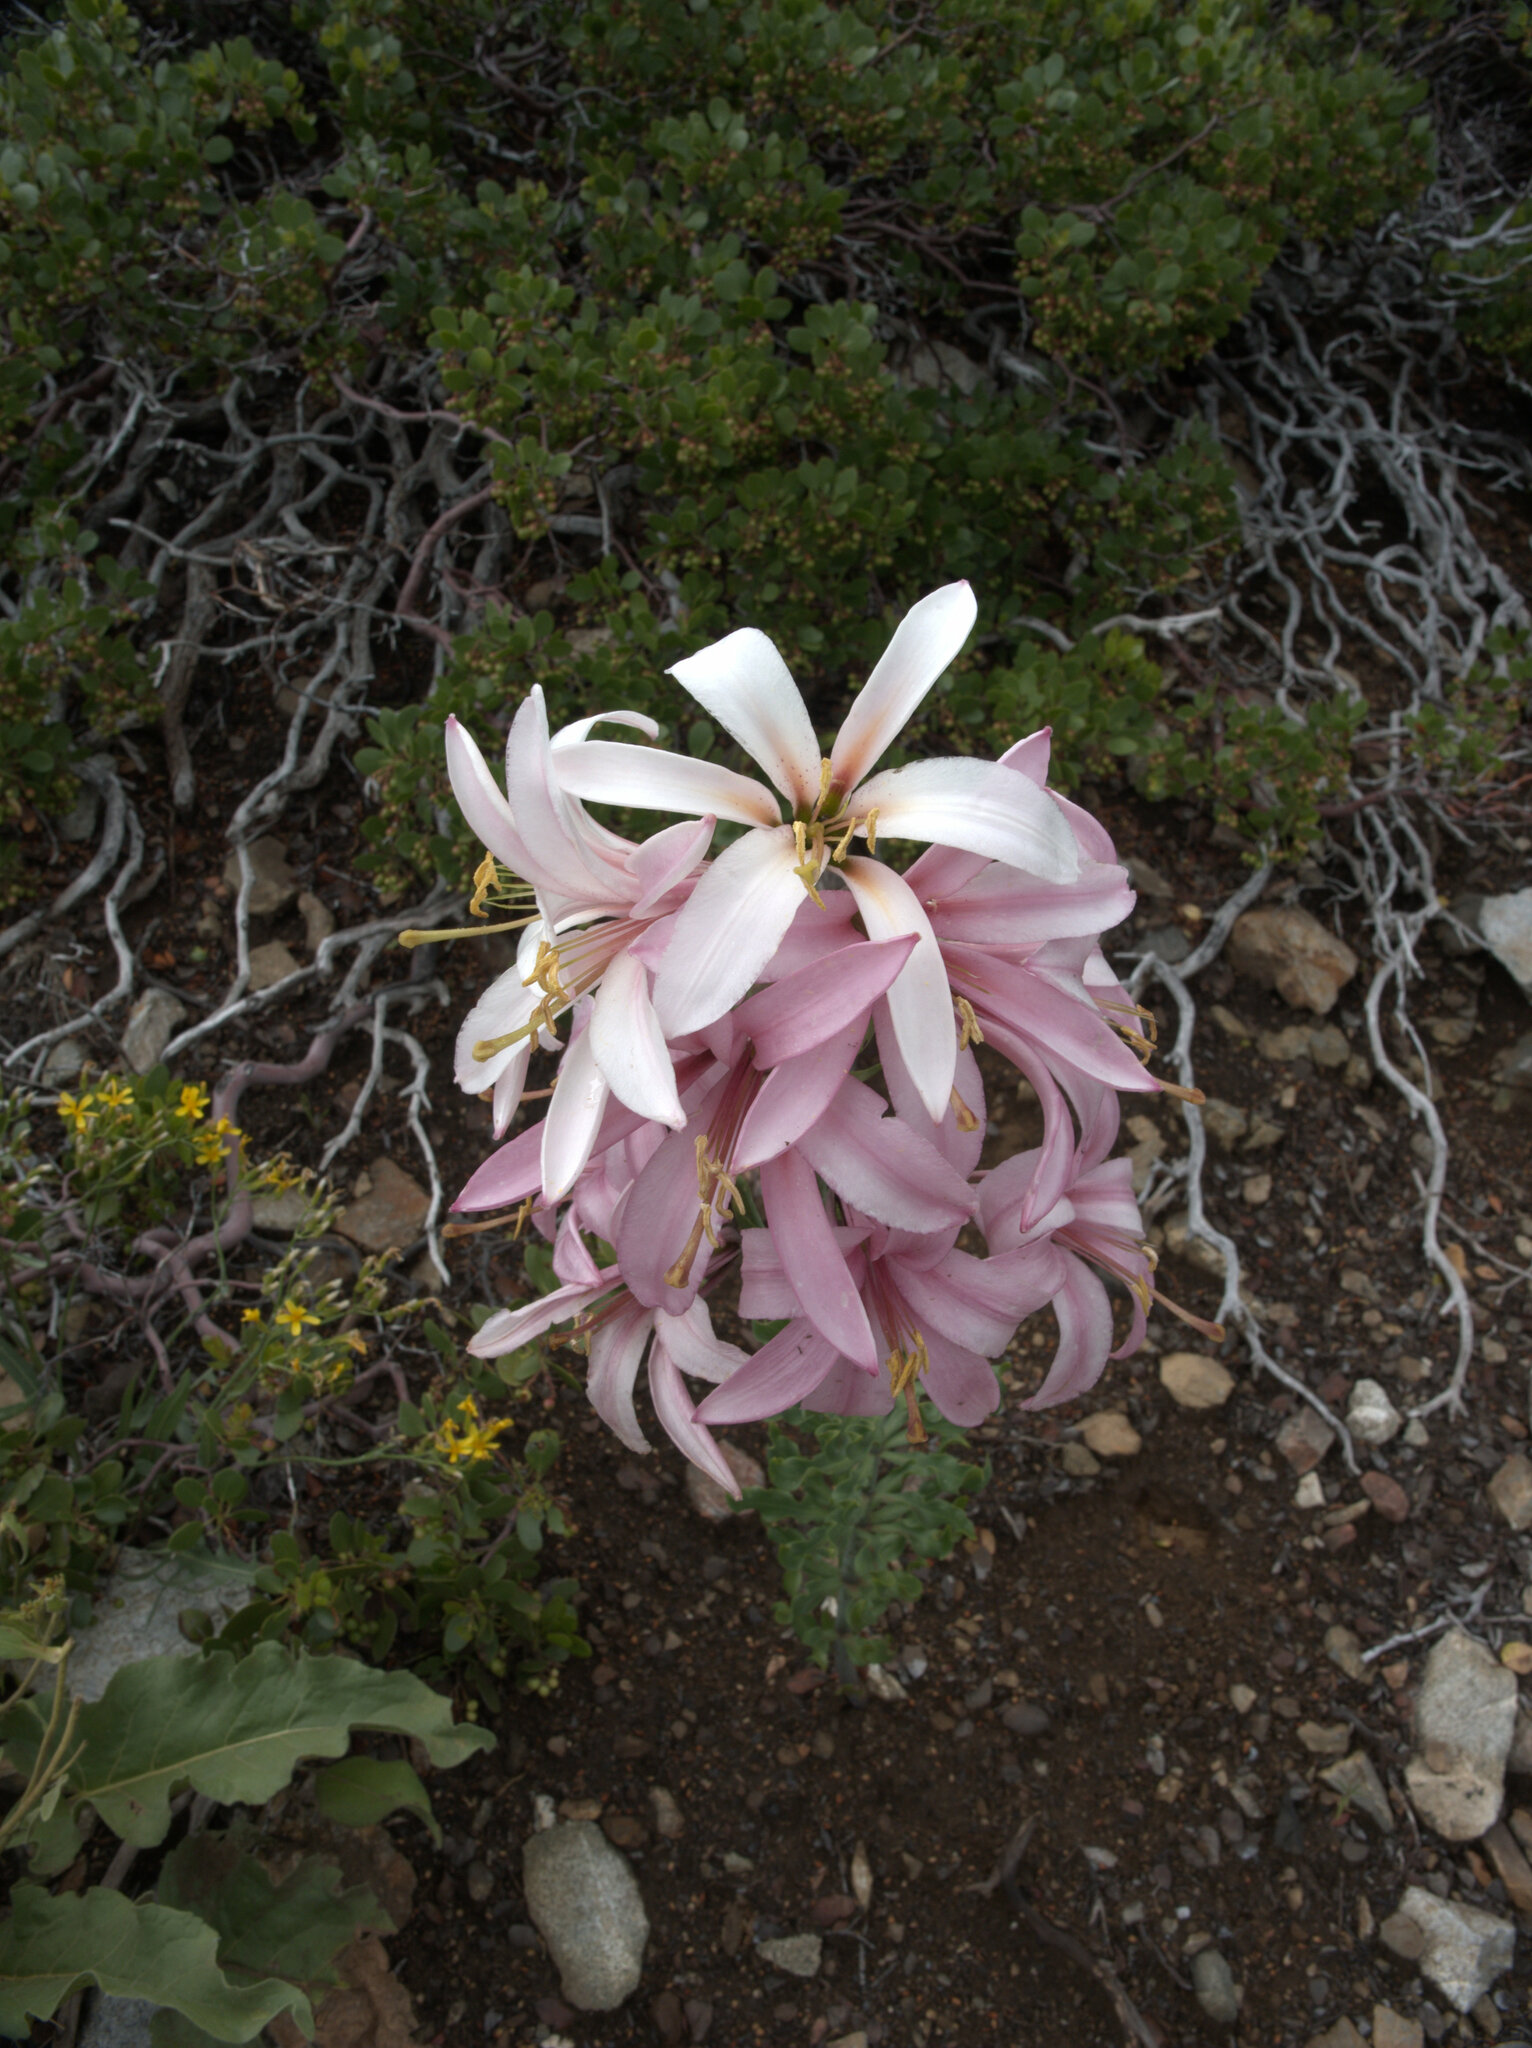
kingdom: Plantae
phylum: Tracheophyta
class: Liliopsida
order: Liliales
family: Liliaceae
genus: Lilium
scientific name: Lilium washingtonianum
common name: Washington lily
